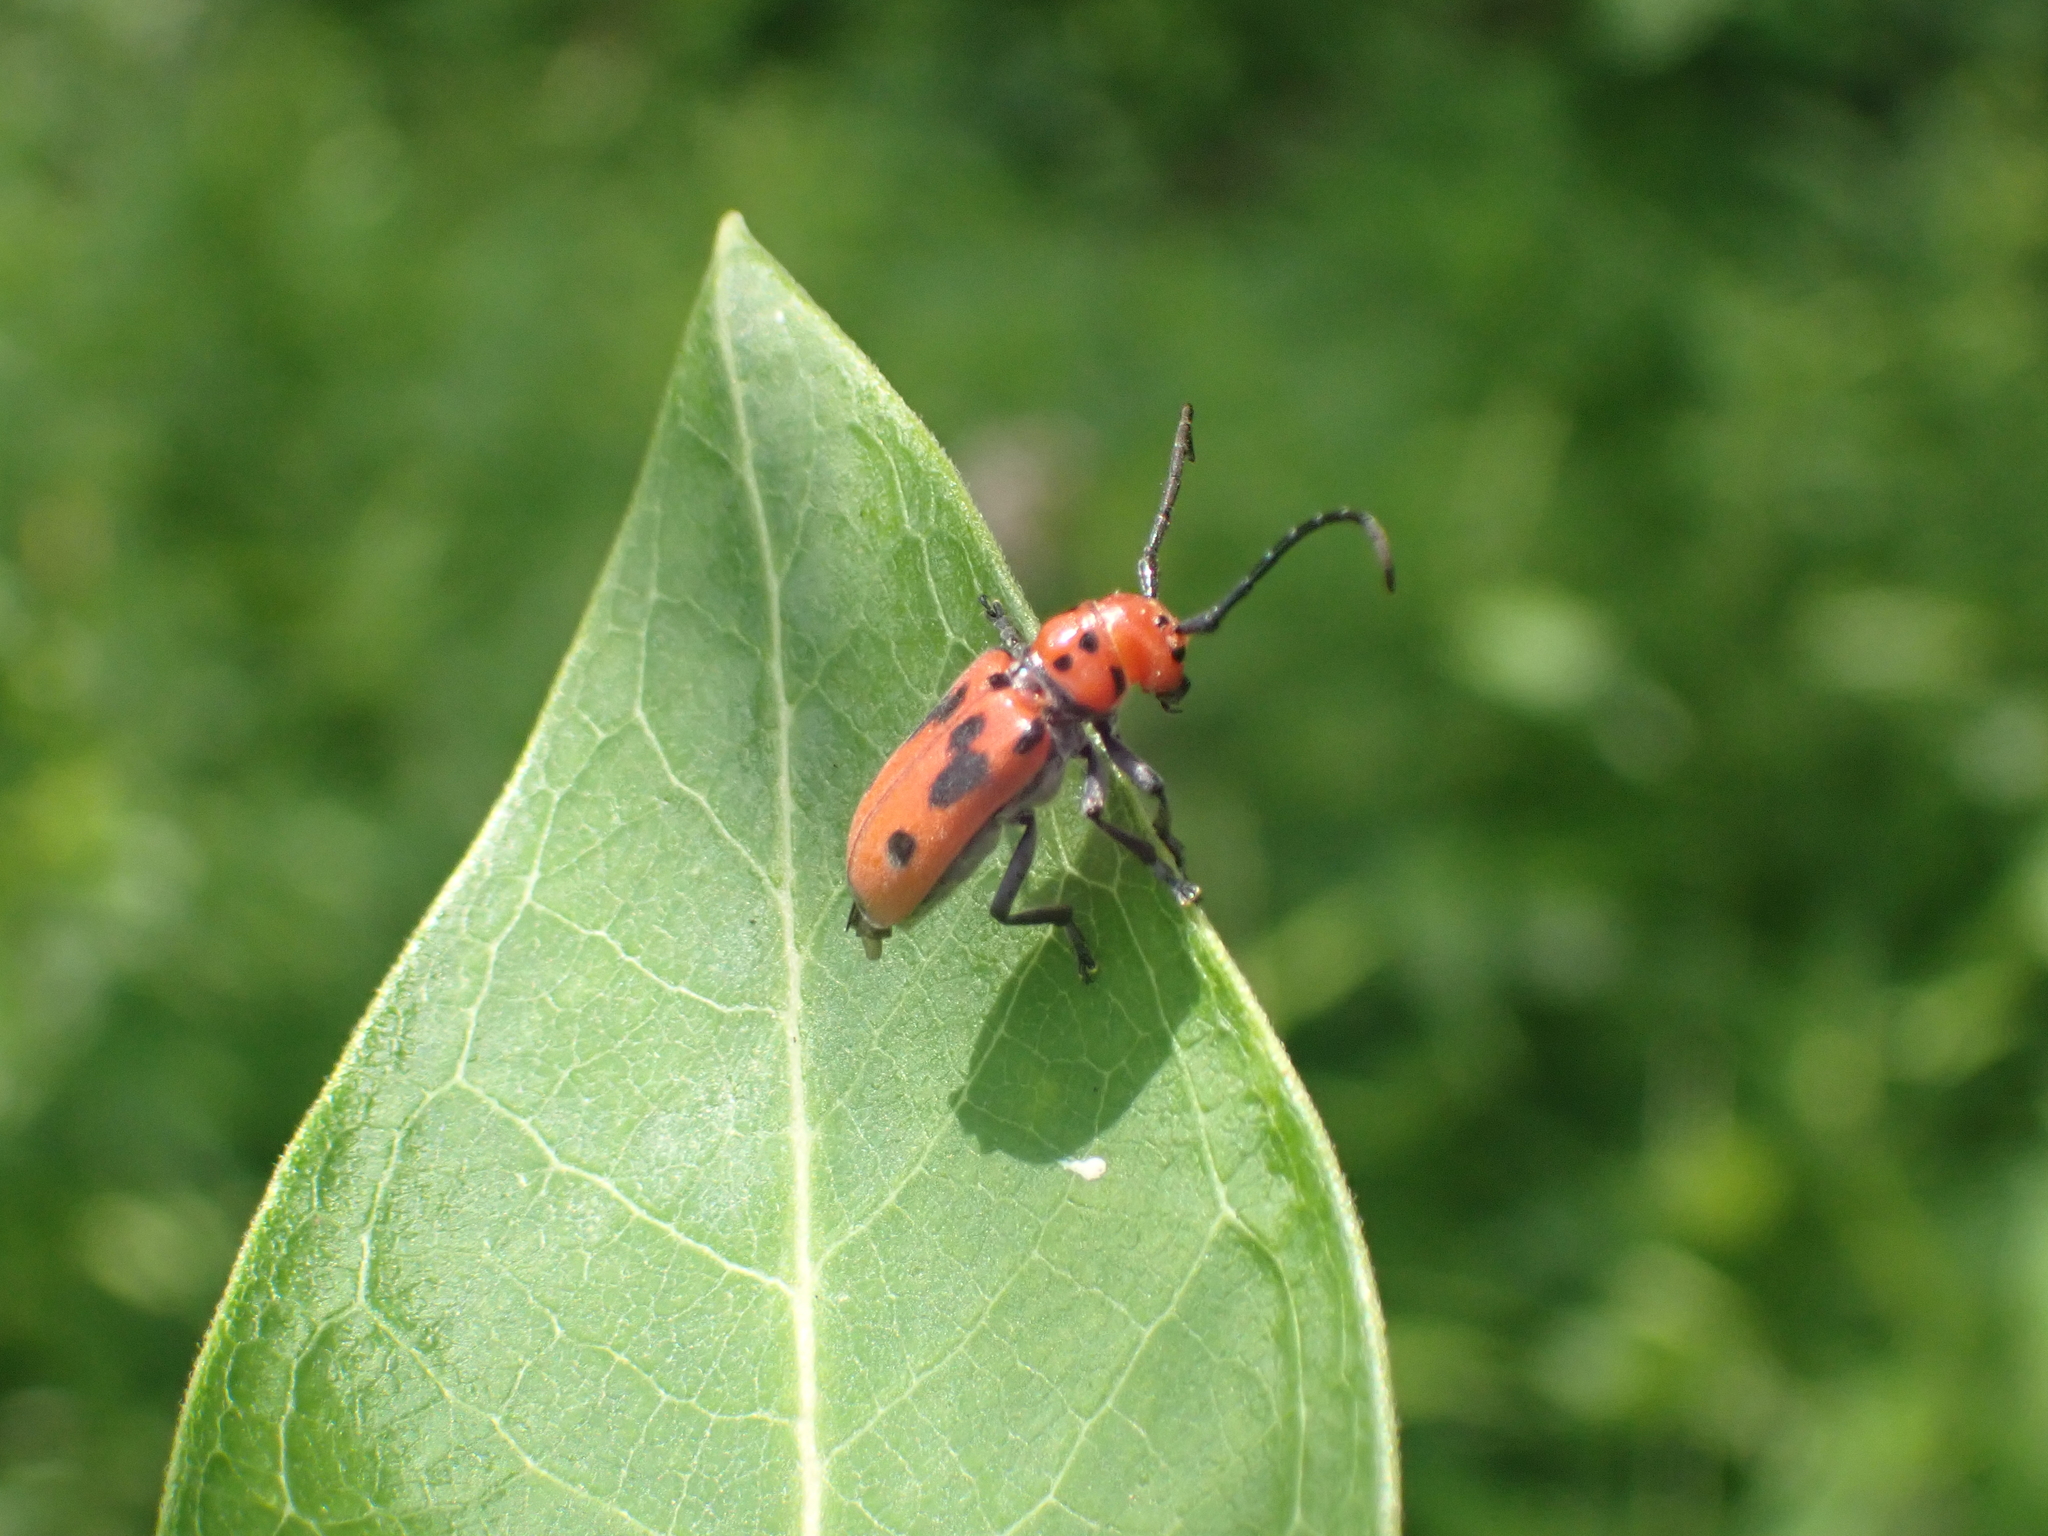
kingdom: Animalia
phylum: Arthropoda
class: Insecta
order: Coleoptera
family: Cerambycidae
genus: Tetraopes
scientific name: Tetraopes tetrophthalmus
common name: Red milkweed beetle
